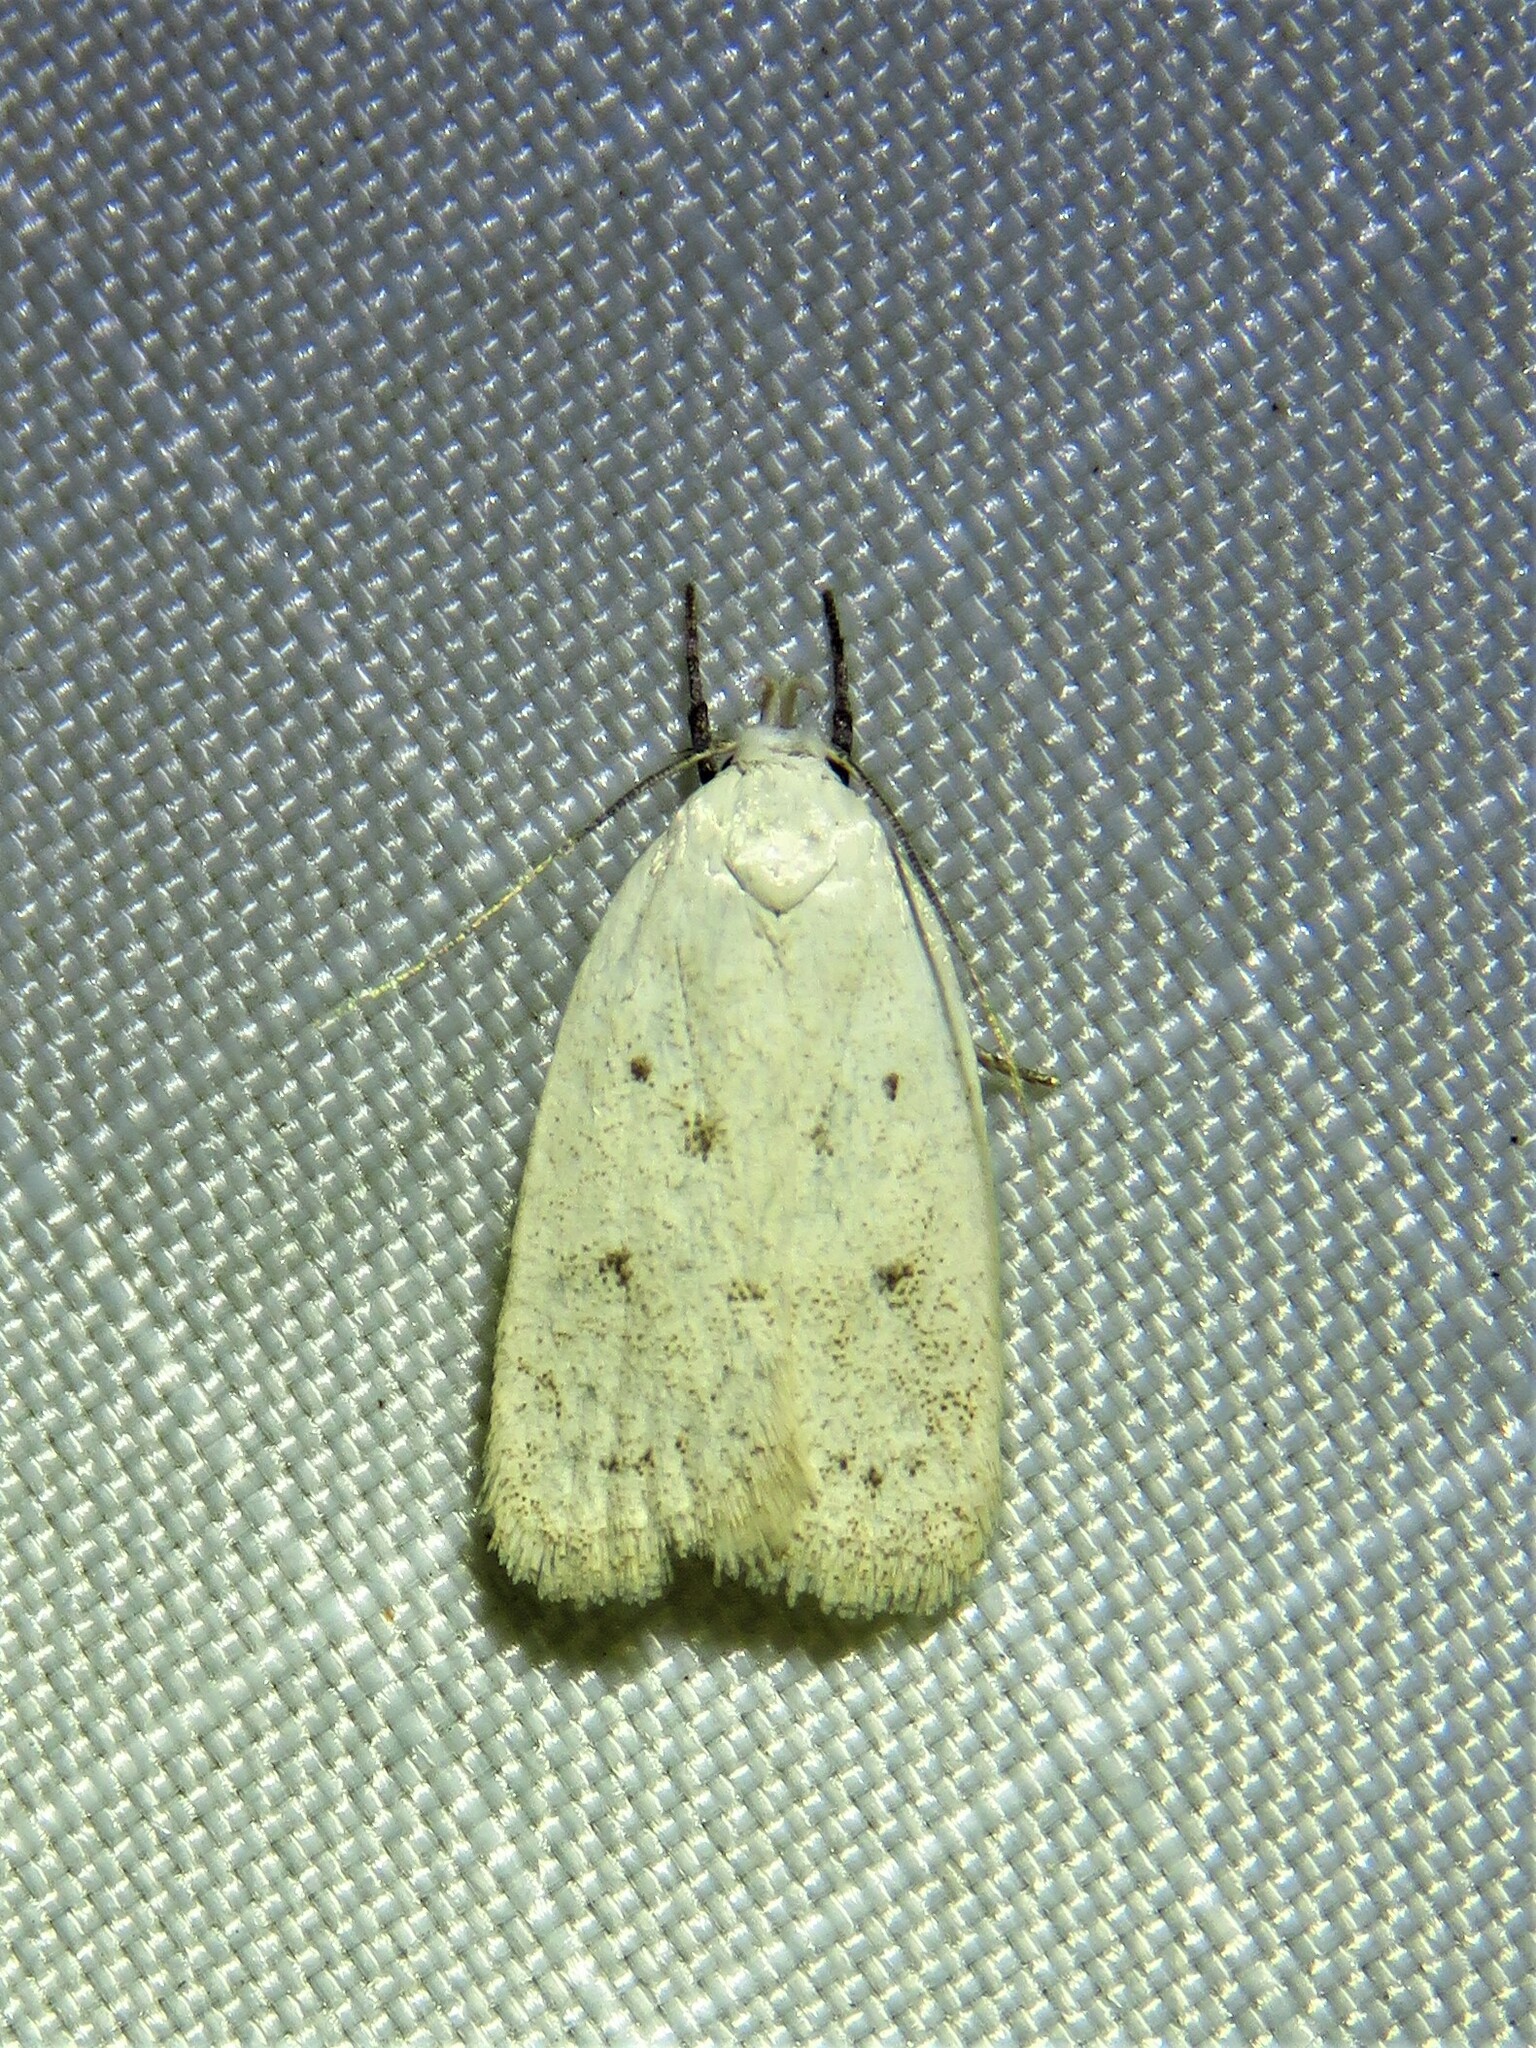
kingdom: Animalia
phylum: Arthropoda
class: Insecta
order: Lepidoptera
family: Oecophoridae
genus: Inga
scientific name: Inga cretacea
